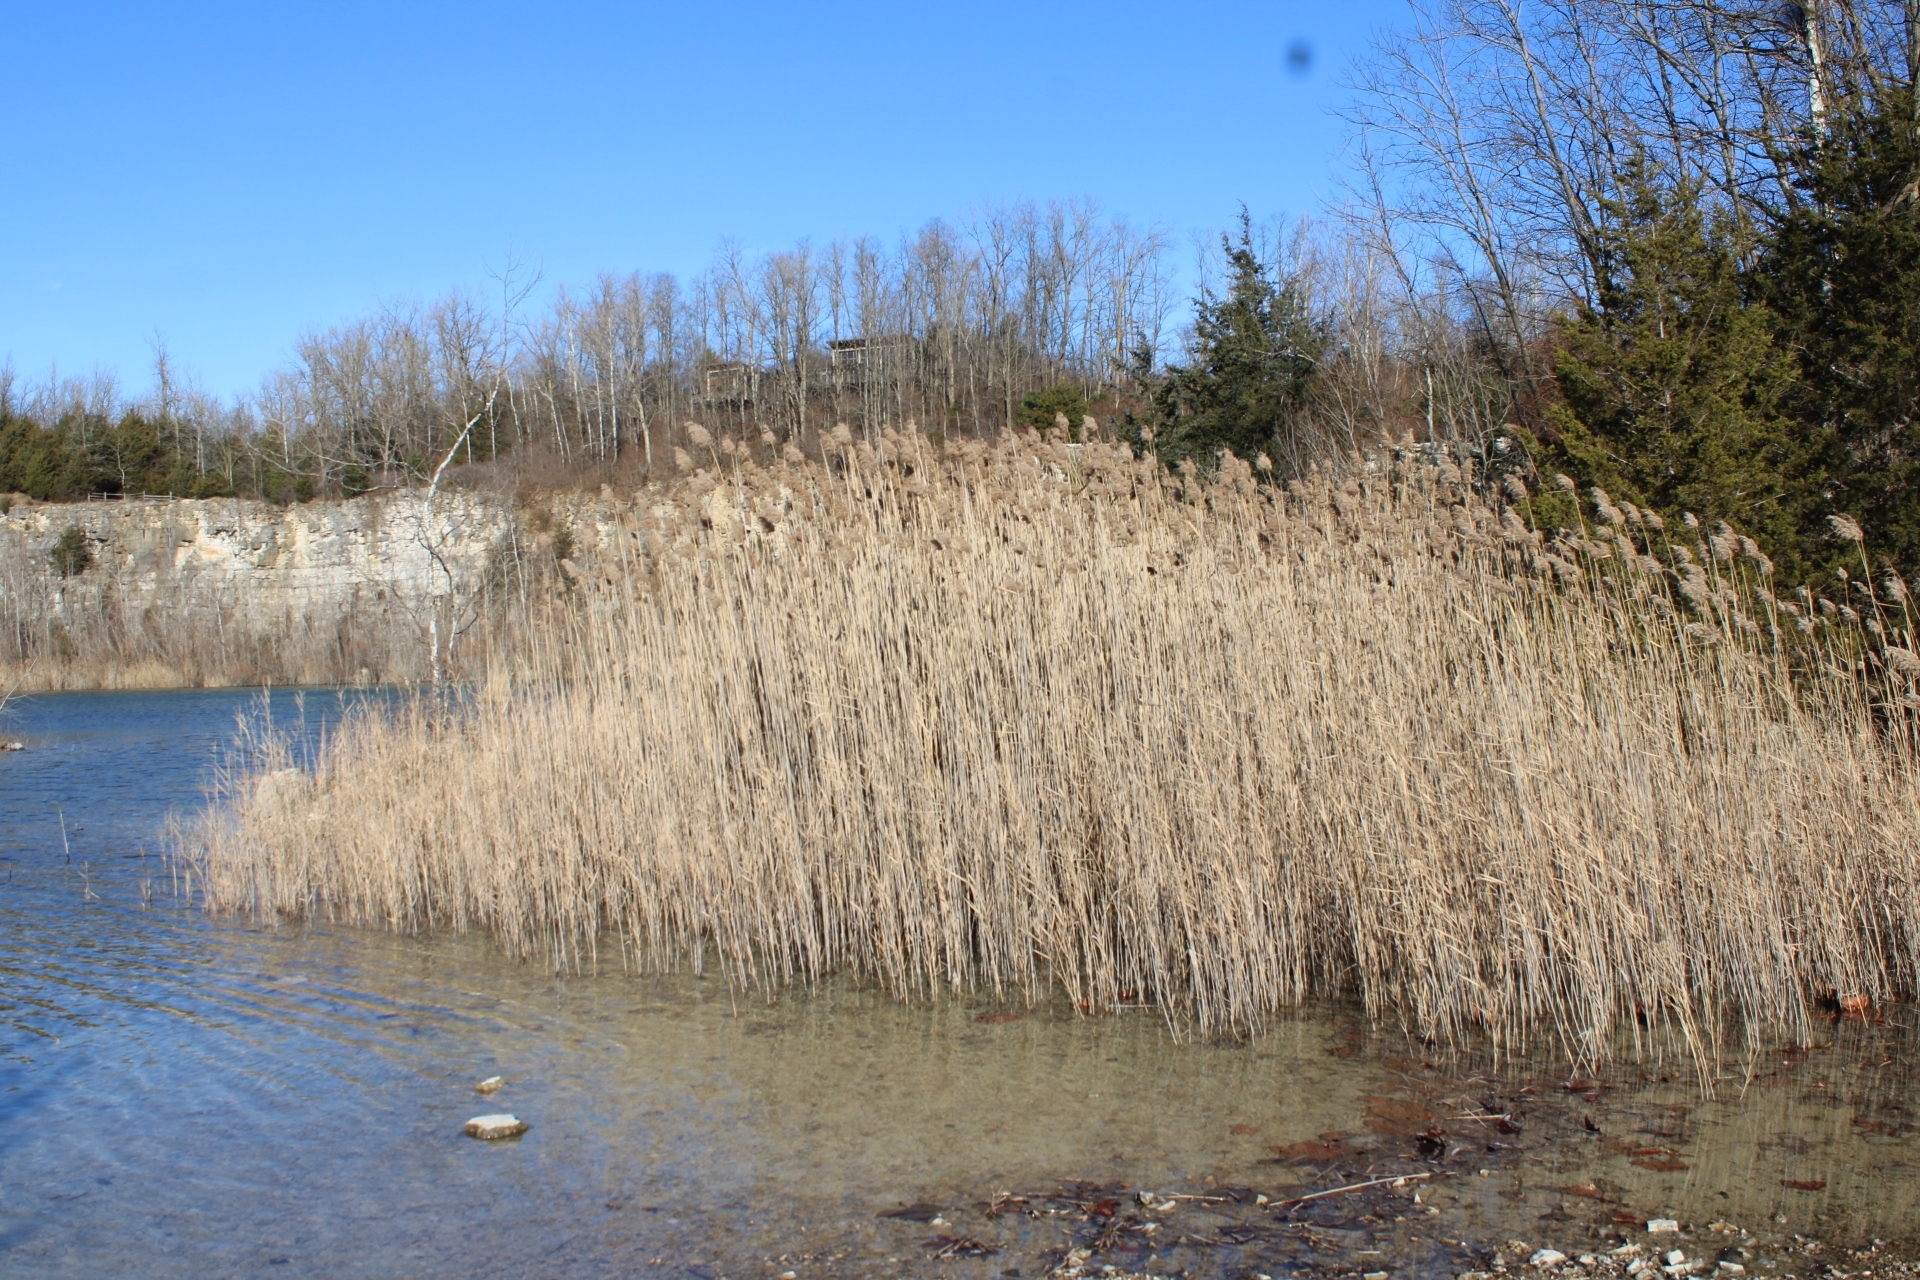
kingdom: Plantae
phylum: Tracheophyta
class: Liliopsida
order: Poales
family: Poaceae
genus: Phragmites
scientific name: Phragmites australis
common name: Common reed
